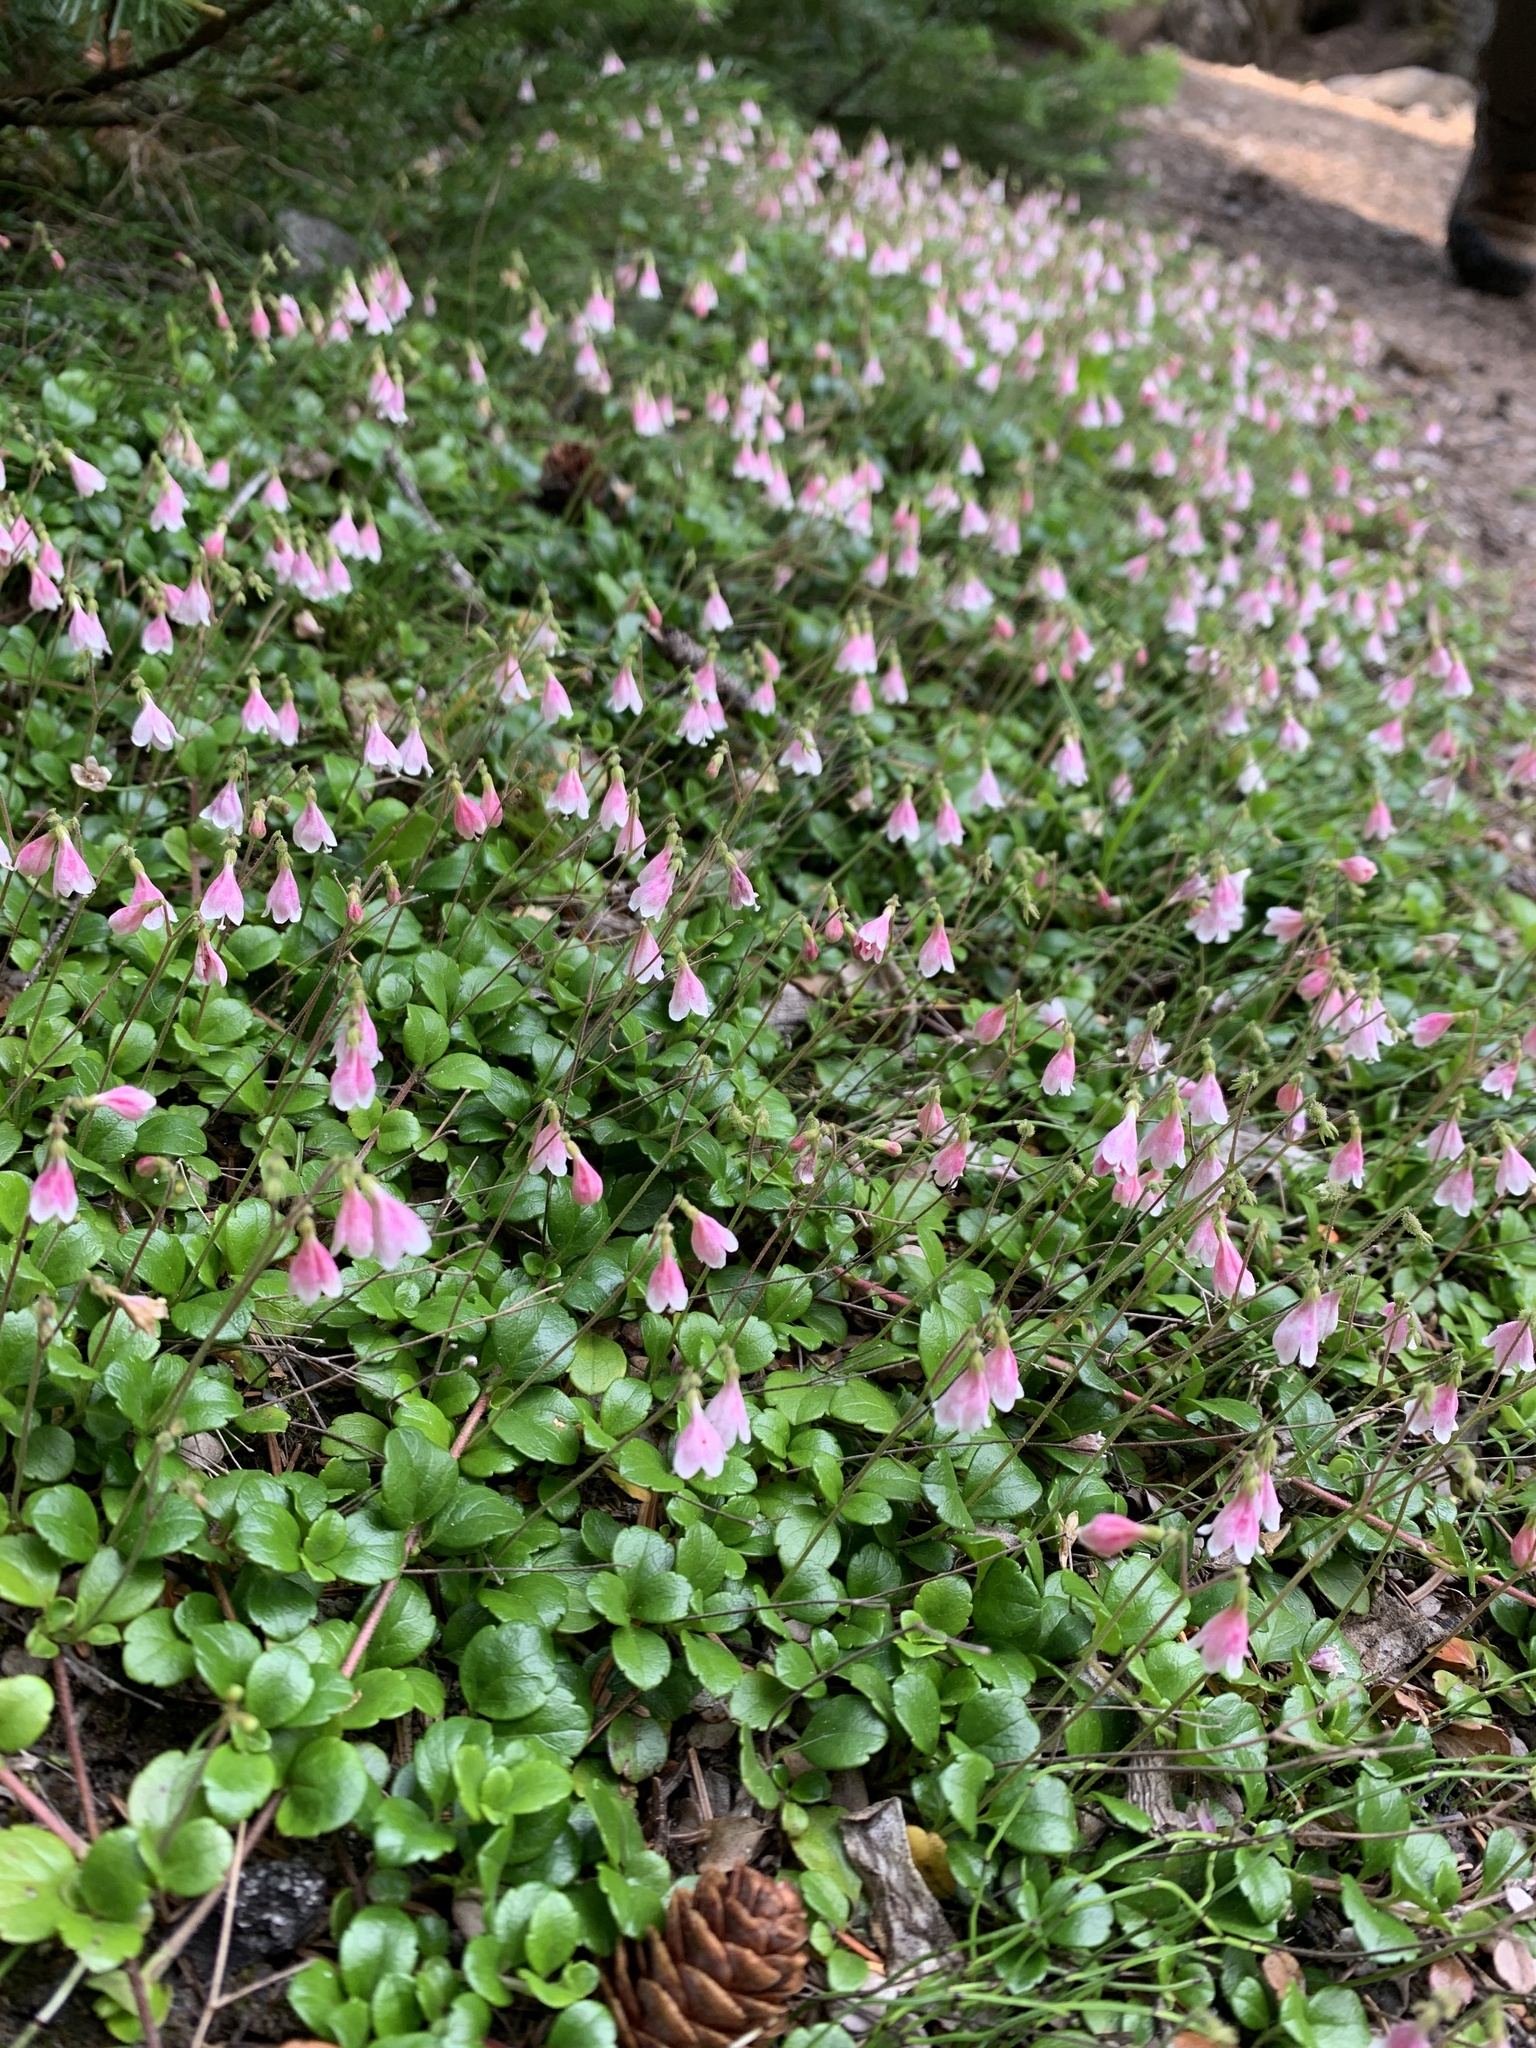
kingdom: Plantae
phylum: Tracheophyta
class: Magnoliopsida
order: Dipsacales
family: Caprifoliaceae
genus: Linnaea
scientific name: Linnaea borealis
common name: Twinflower
